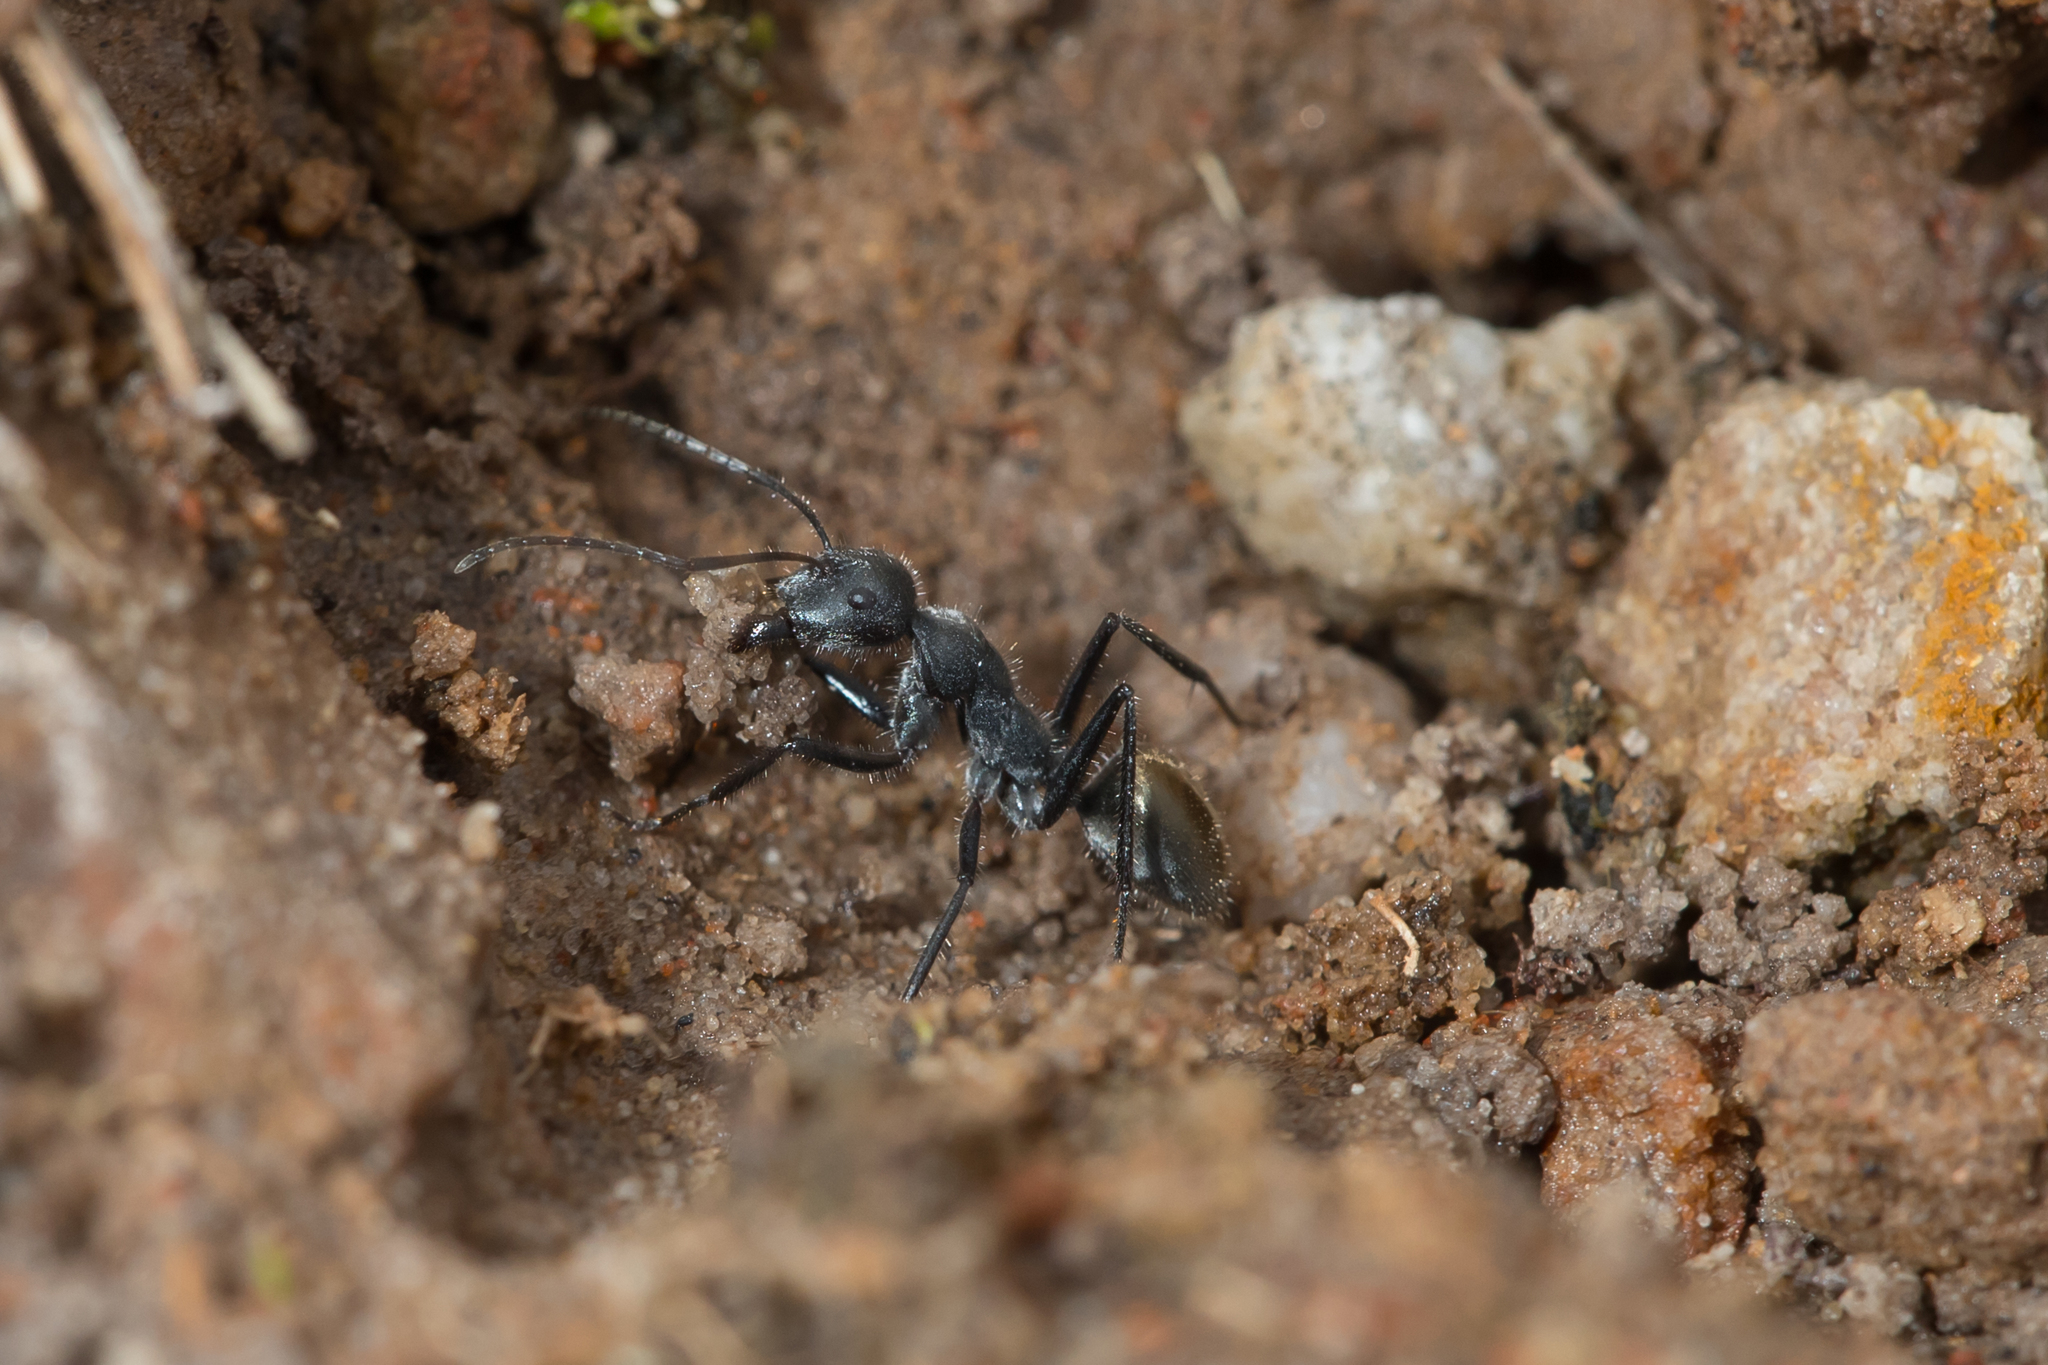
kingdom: Animalia
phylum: Arthropoda
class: Insecta
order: Hymenoptera
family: Formicidae
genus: Camponotus
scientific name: Camponotus suffusus
